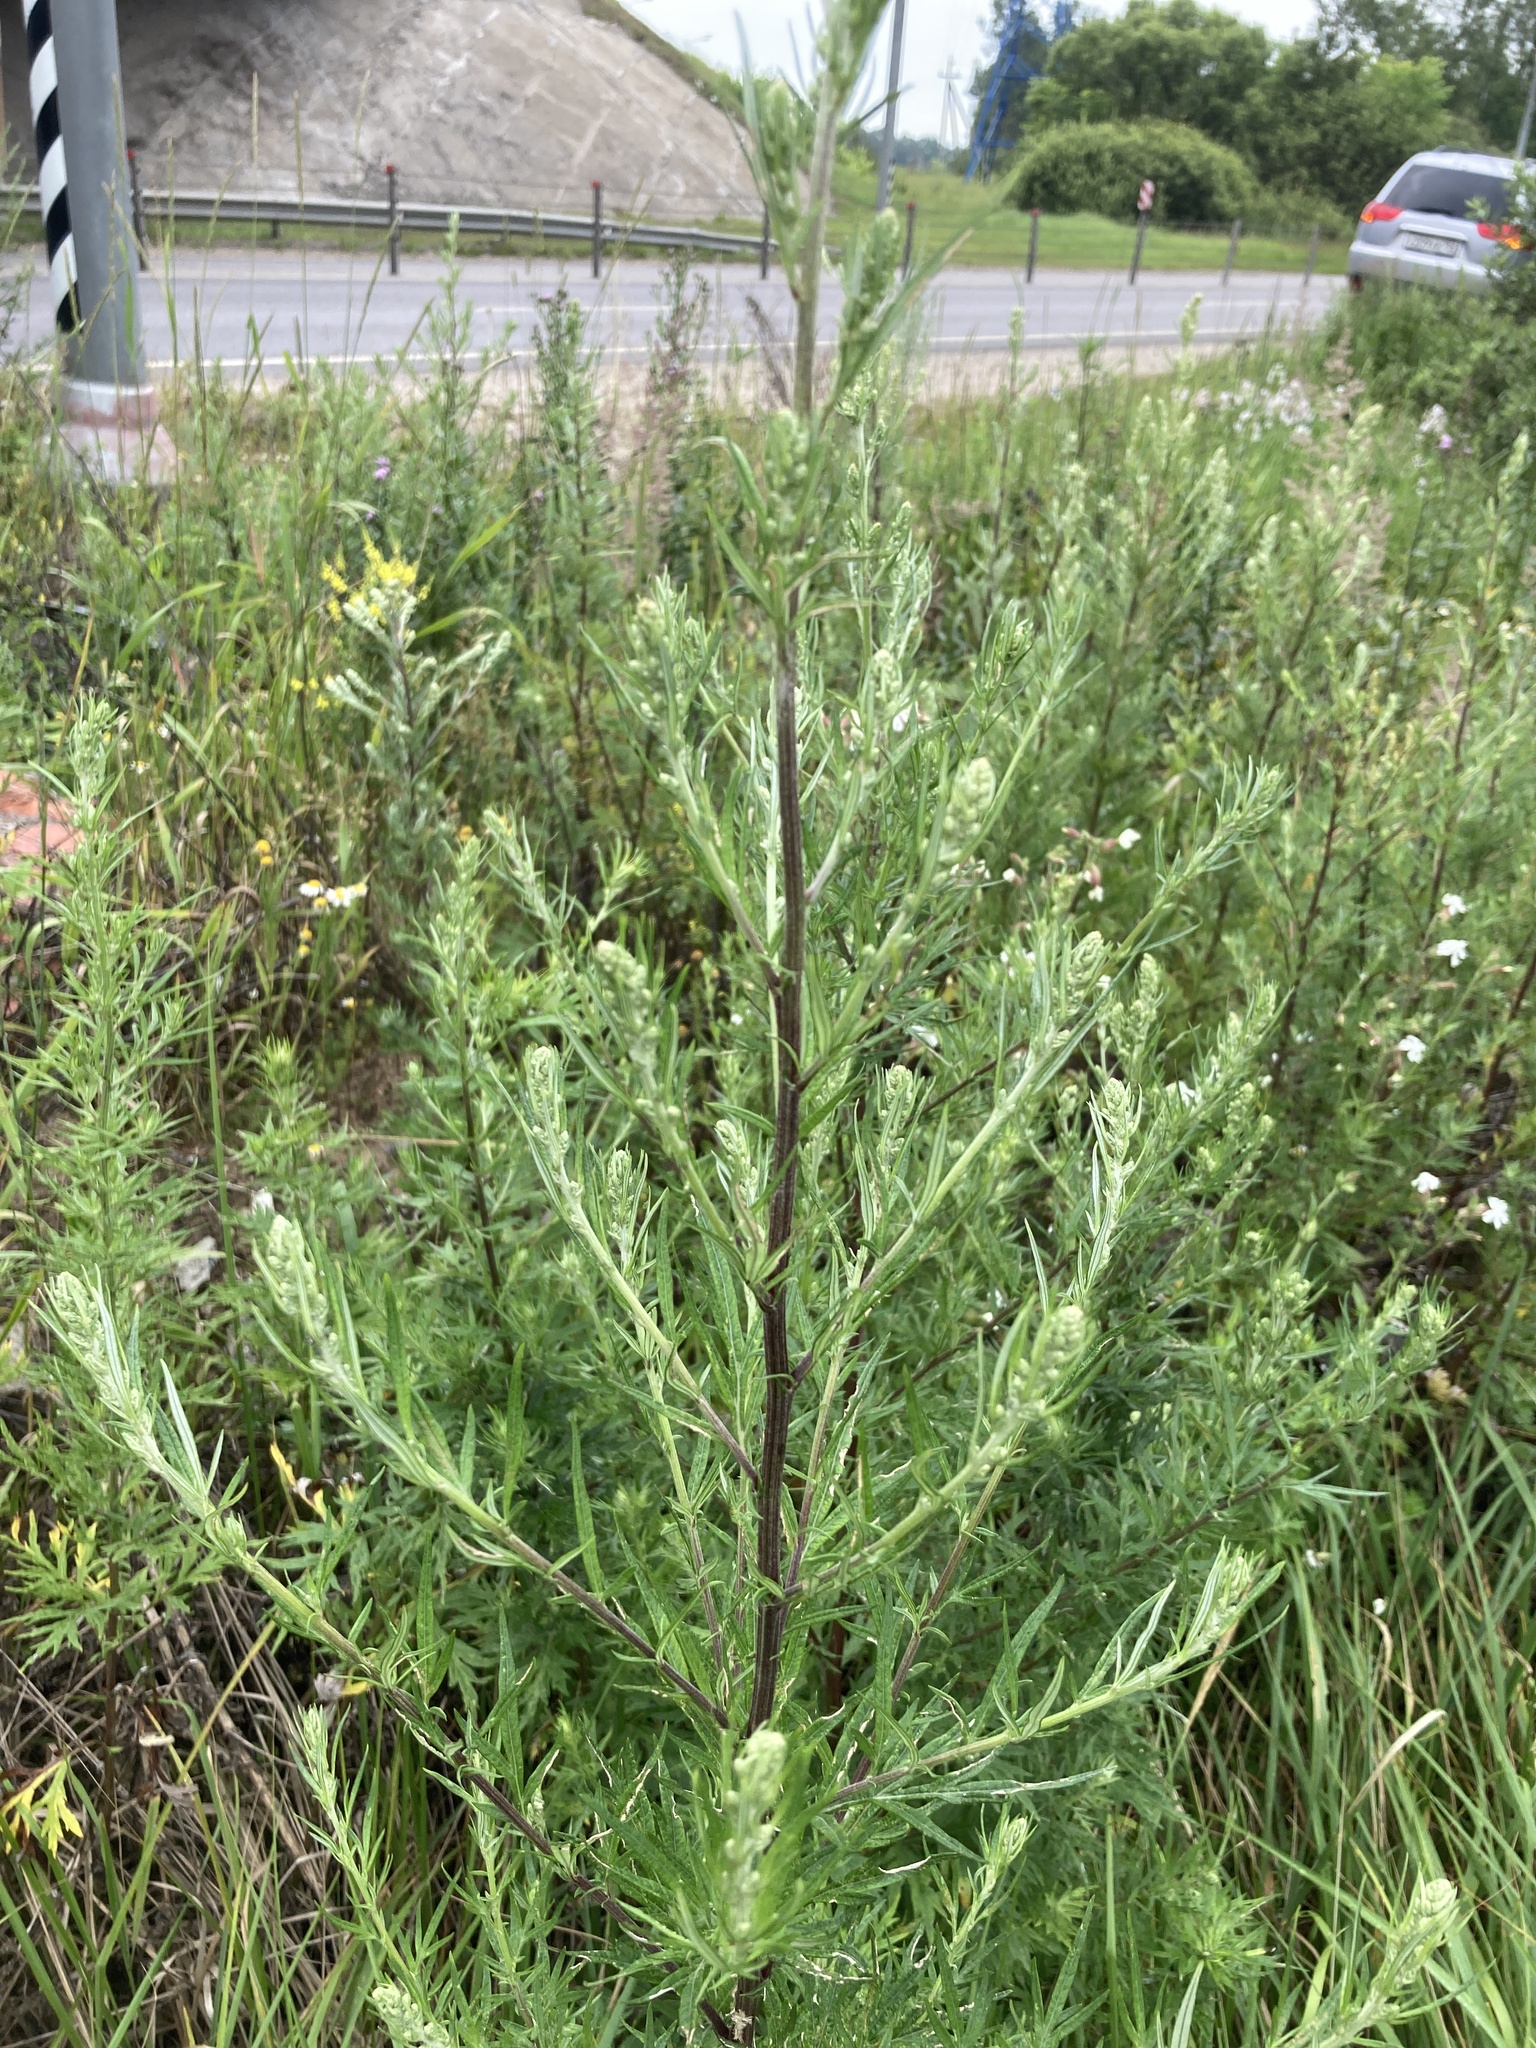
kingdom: Plantae
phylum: Tracheophyta
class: Magnoliopsida
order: Asterales
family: Asteraceae
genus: Artemisia
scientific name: Artemisia vulgaris
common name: Mugwort
